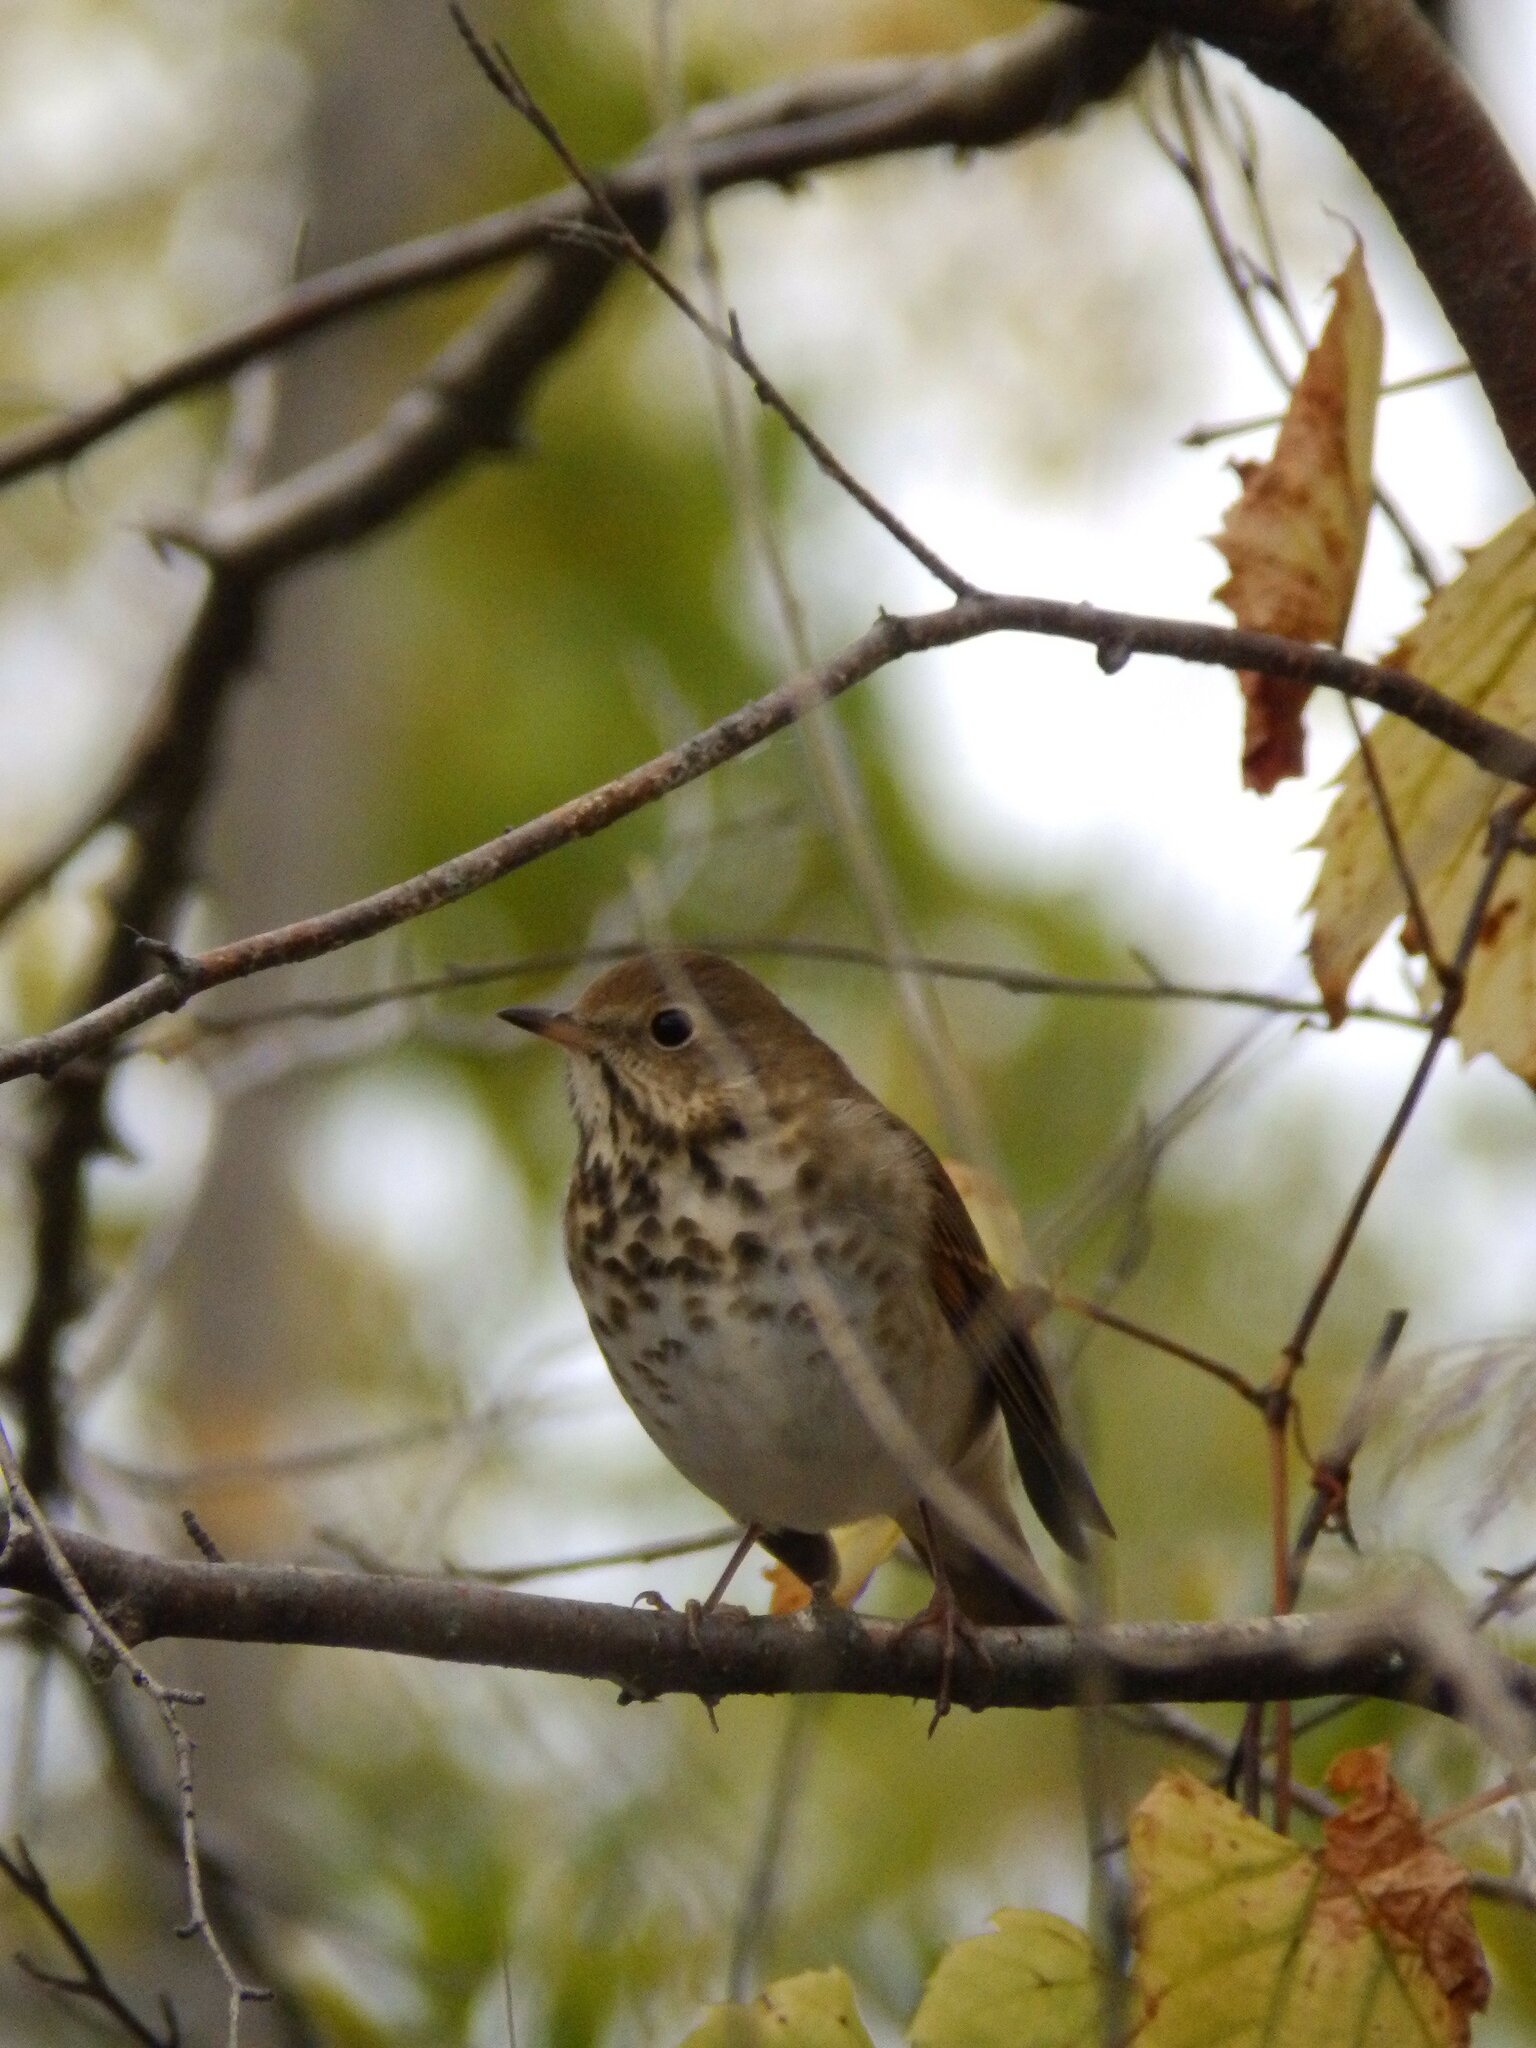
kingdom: Animalia
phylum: Chordata
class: Aves
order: Passeriformes
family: Turdidae
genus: Catharus
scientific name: Catharus guttatus
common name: Hermit thrush
